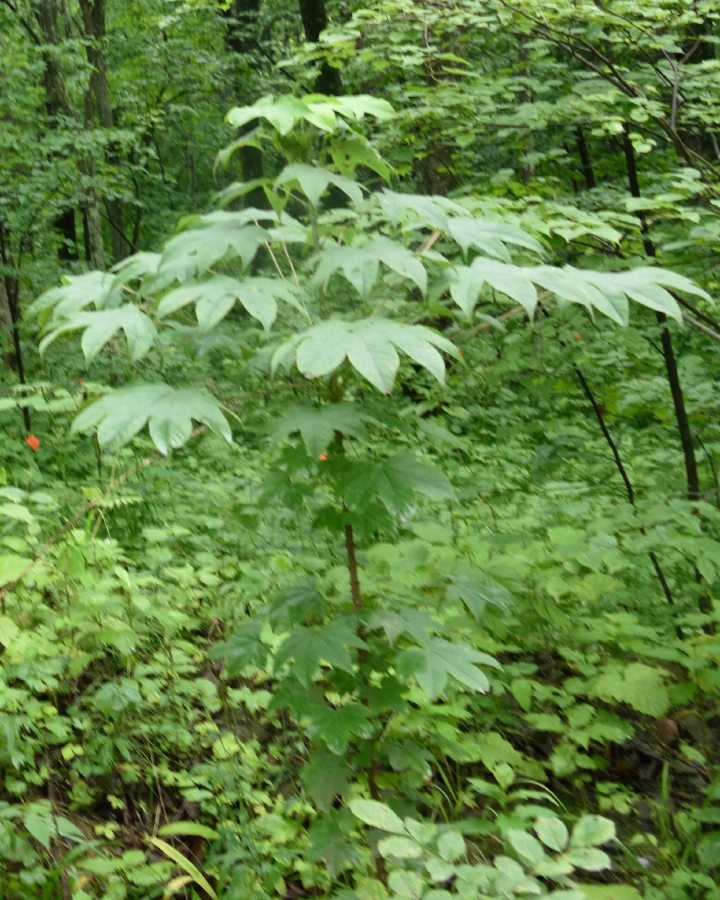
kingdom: Plantae
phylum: Tracheophyta
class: Magnoliopsida
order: Apiales
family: Araliaceae
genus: Kalopanax
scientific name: Kalopanax septemlobus
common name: Castor aralia
